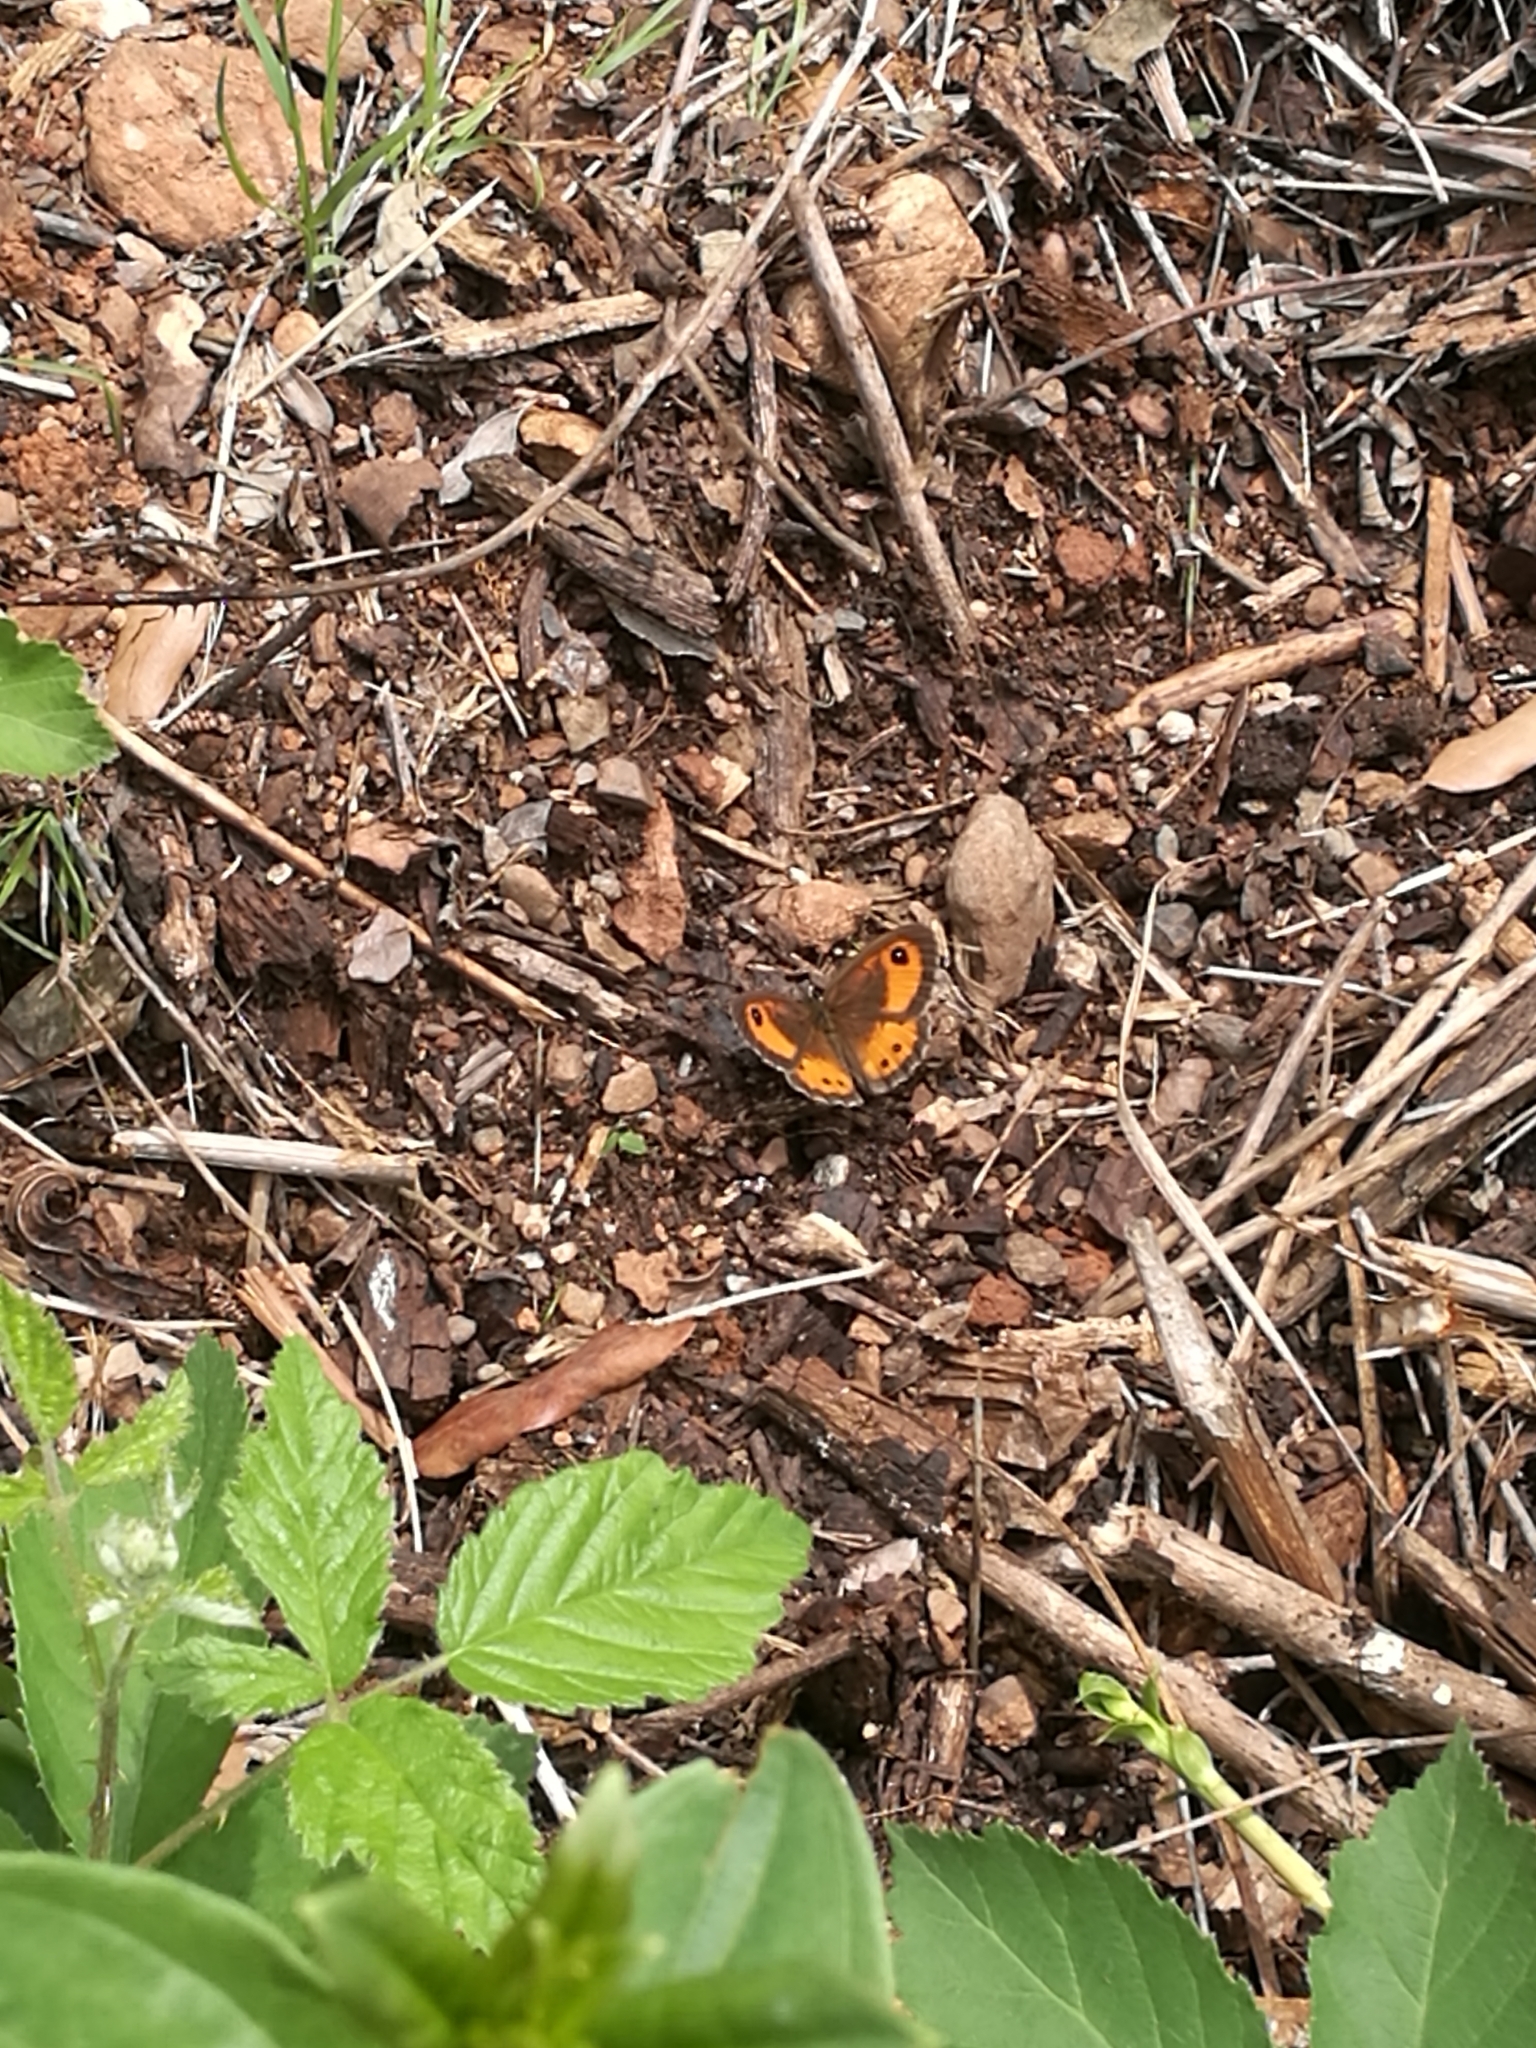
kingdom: Animalia
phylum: Arthropoda
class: Insecta
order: Lepidoptera
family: Nymphalidae
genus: Pyronia
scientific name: Pyronia bathseba
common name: Spanish gatekeeper
